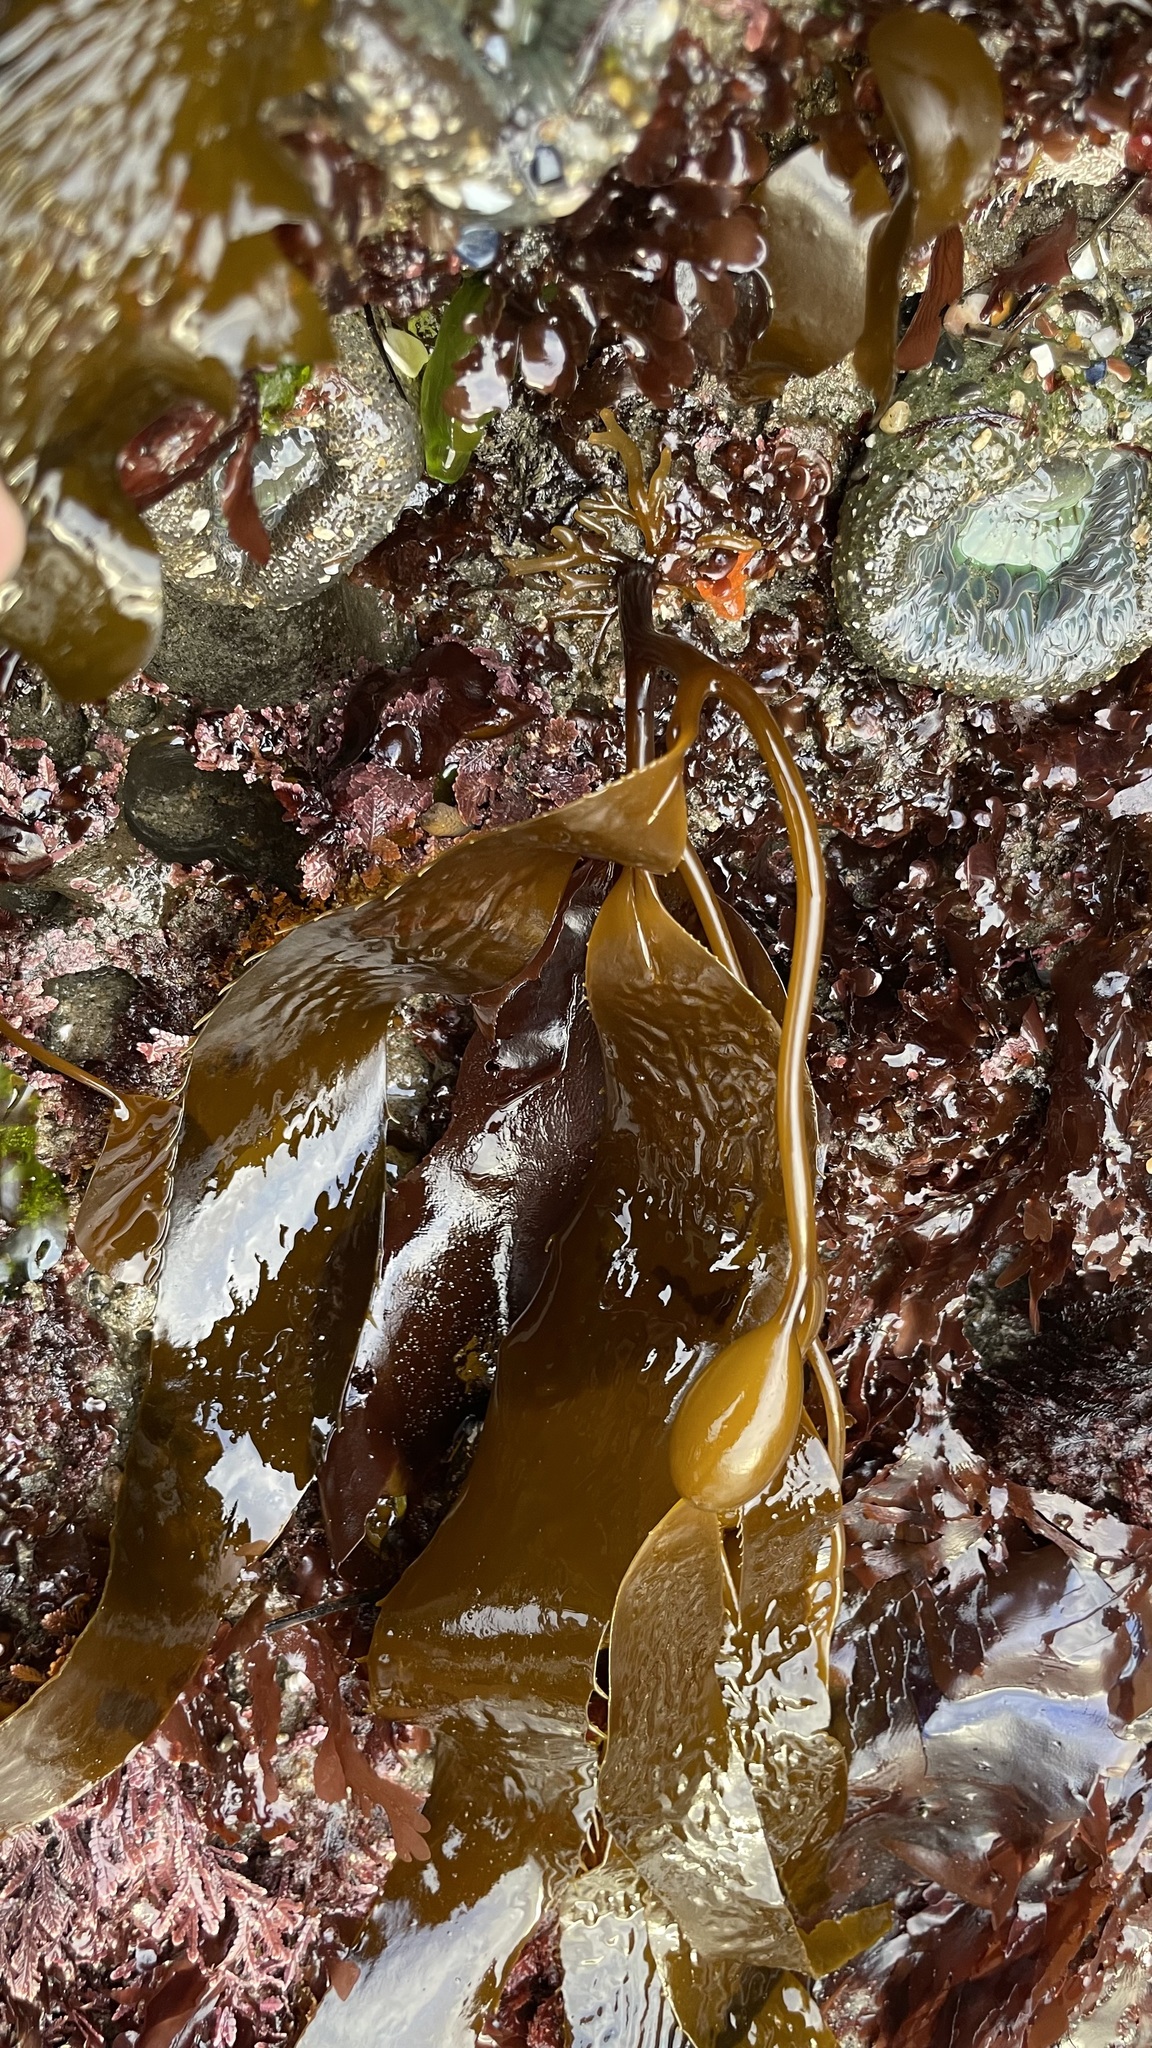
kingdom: Chromista
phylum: Ochrophyta
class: Phaeophyceae
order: Laminariales
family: Laminariaceae
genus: Macrocystis
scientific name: Macrocystis pyrifera
